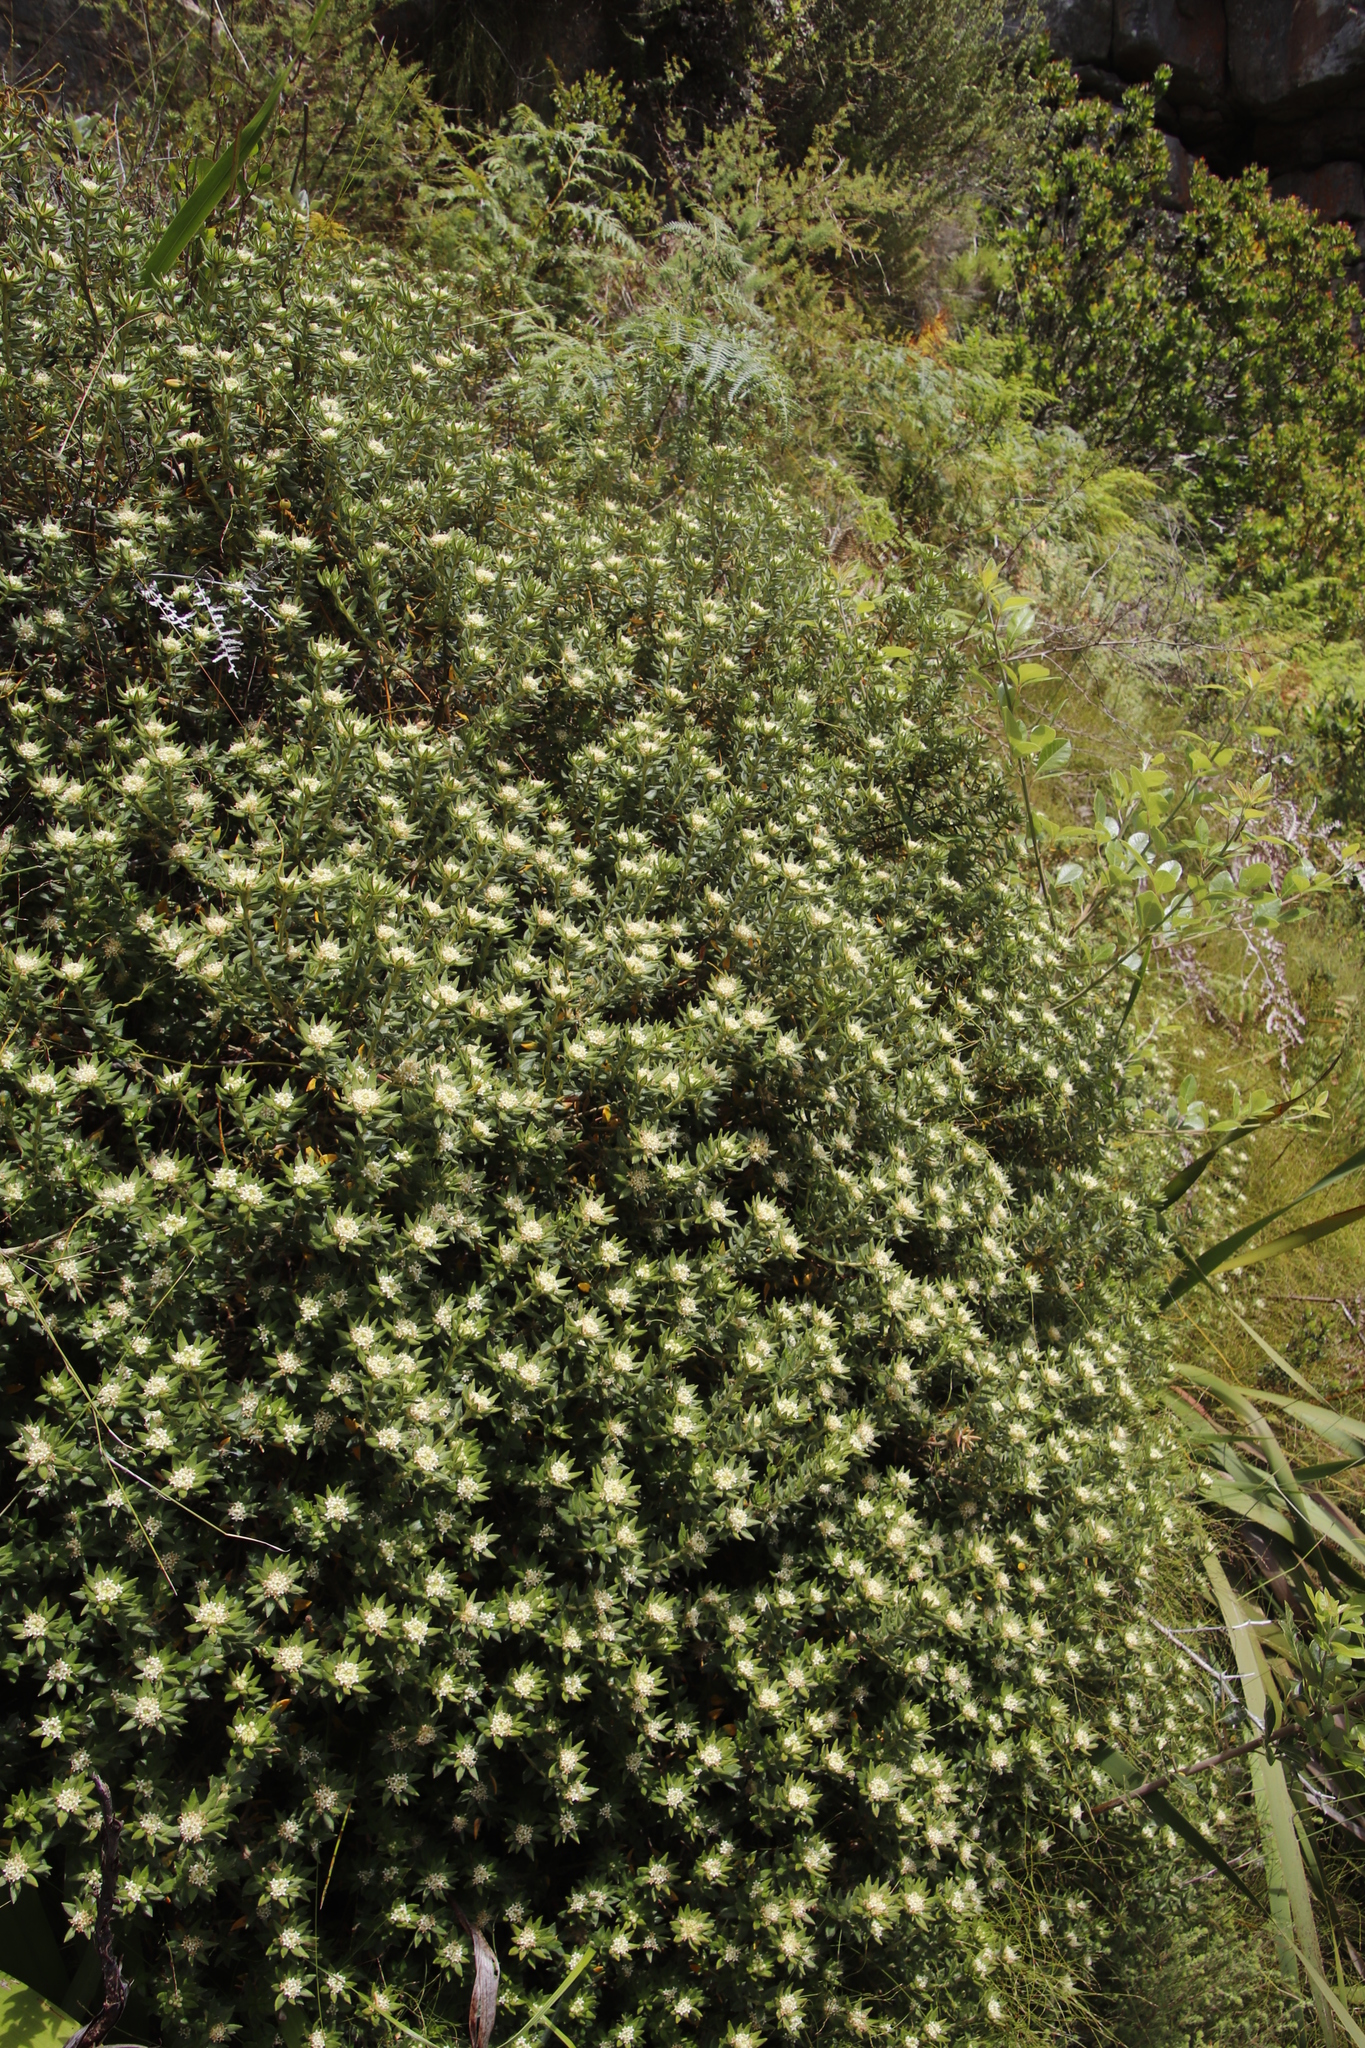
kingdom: Plantae
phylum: Tracheophyta
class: Magnoliopsida
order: Rosales
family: Rhamnaceae
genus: Phylica
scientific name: Phylica dioica
